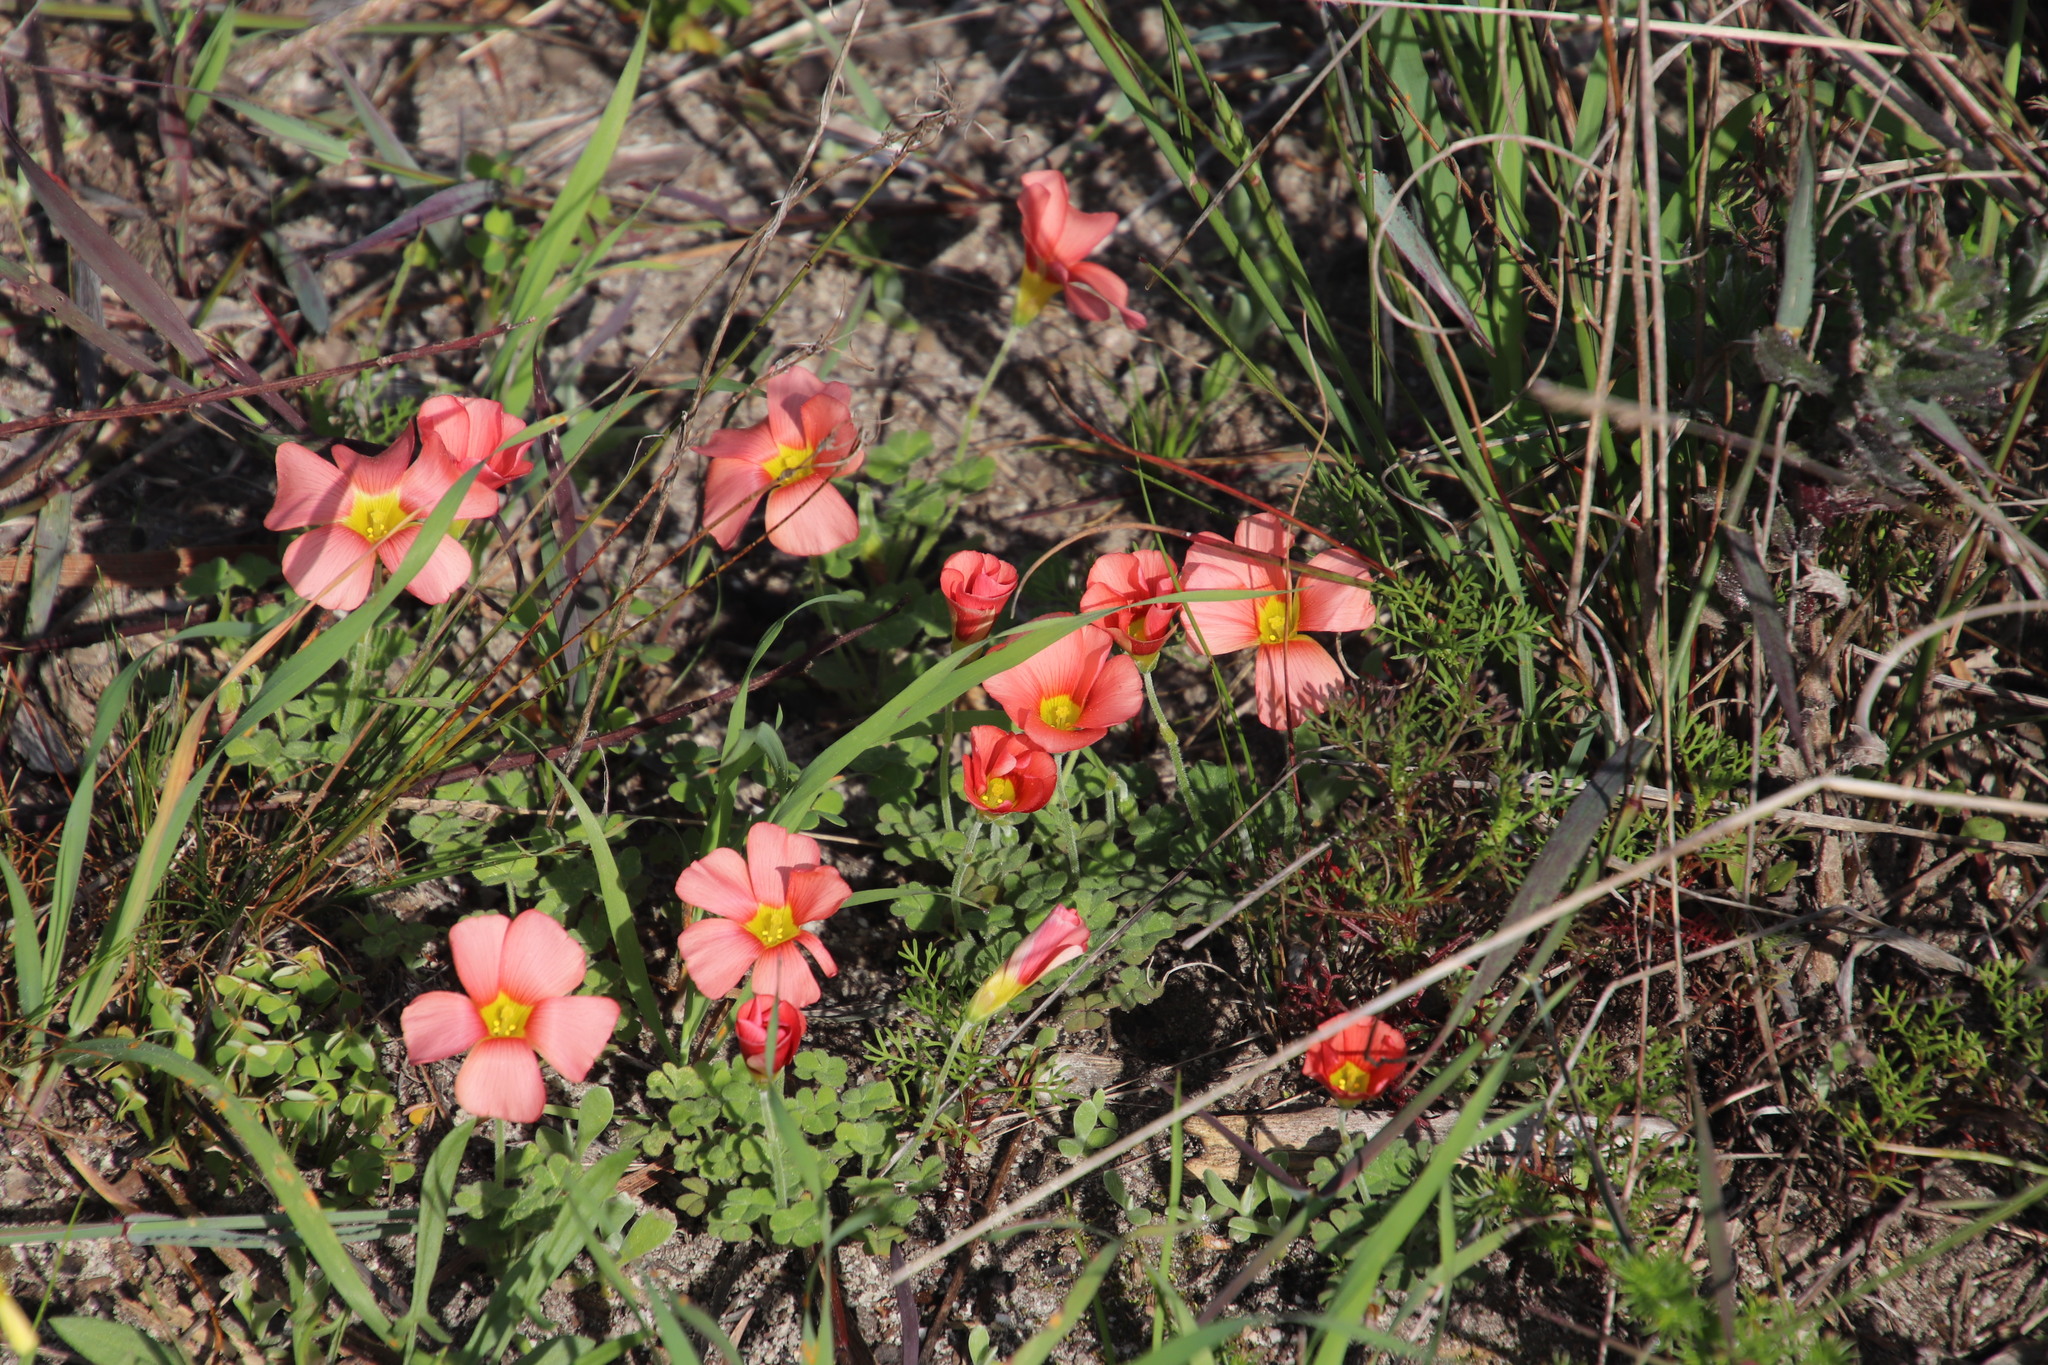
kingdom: Plantae
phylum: Tracheophyta
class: Magnoliopsida
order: Oxalidales
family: Oxalidaceae
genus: Oxalis
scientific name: Oxalis obtusa
